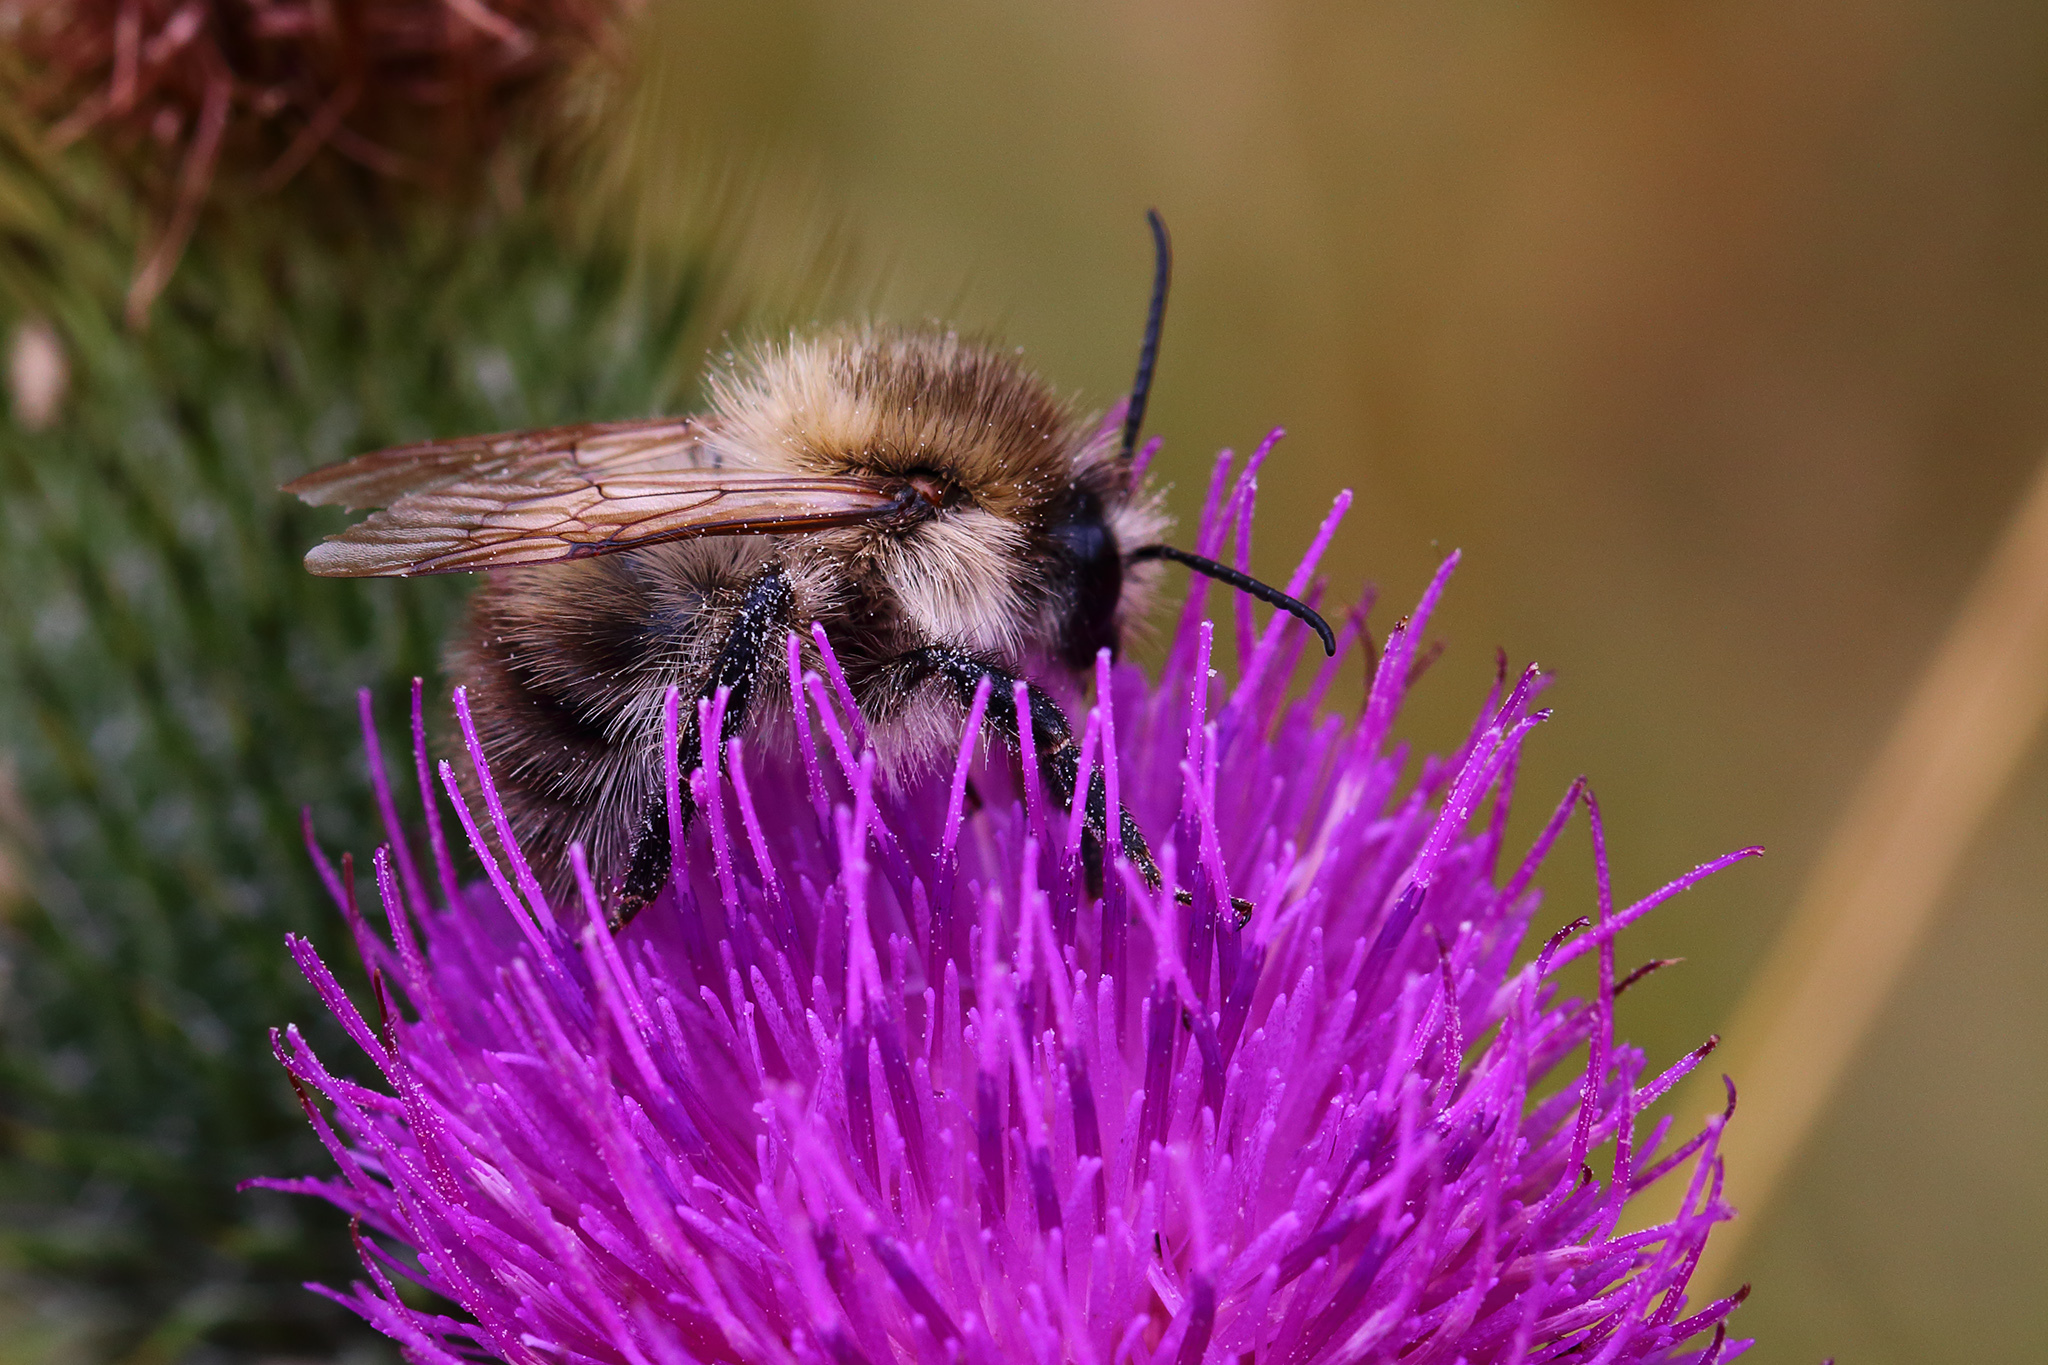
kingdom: Animalia
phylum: Arthropoda
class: Insecta
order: Hymenoptera
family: Apidae
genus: Bombus
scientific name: Bombus pascuorum
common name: Common carder bee
